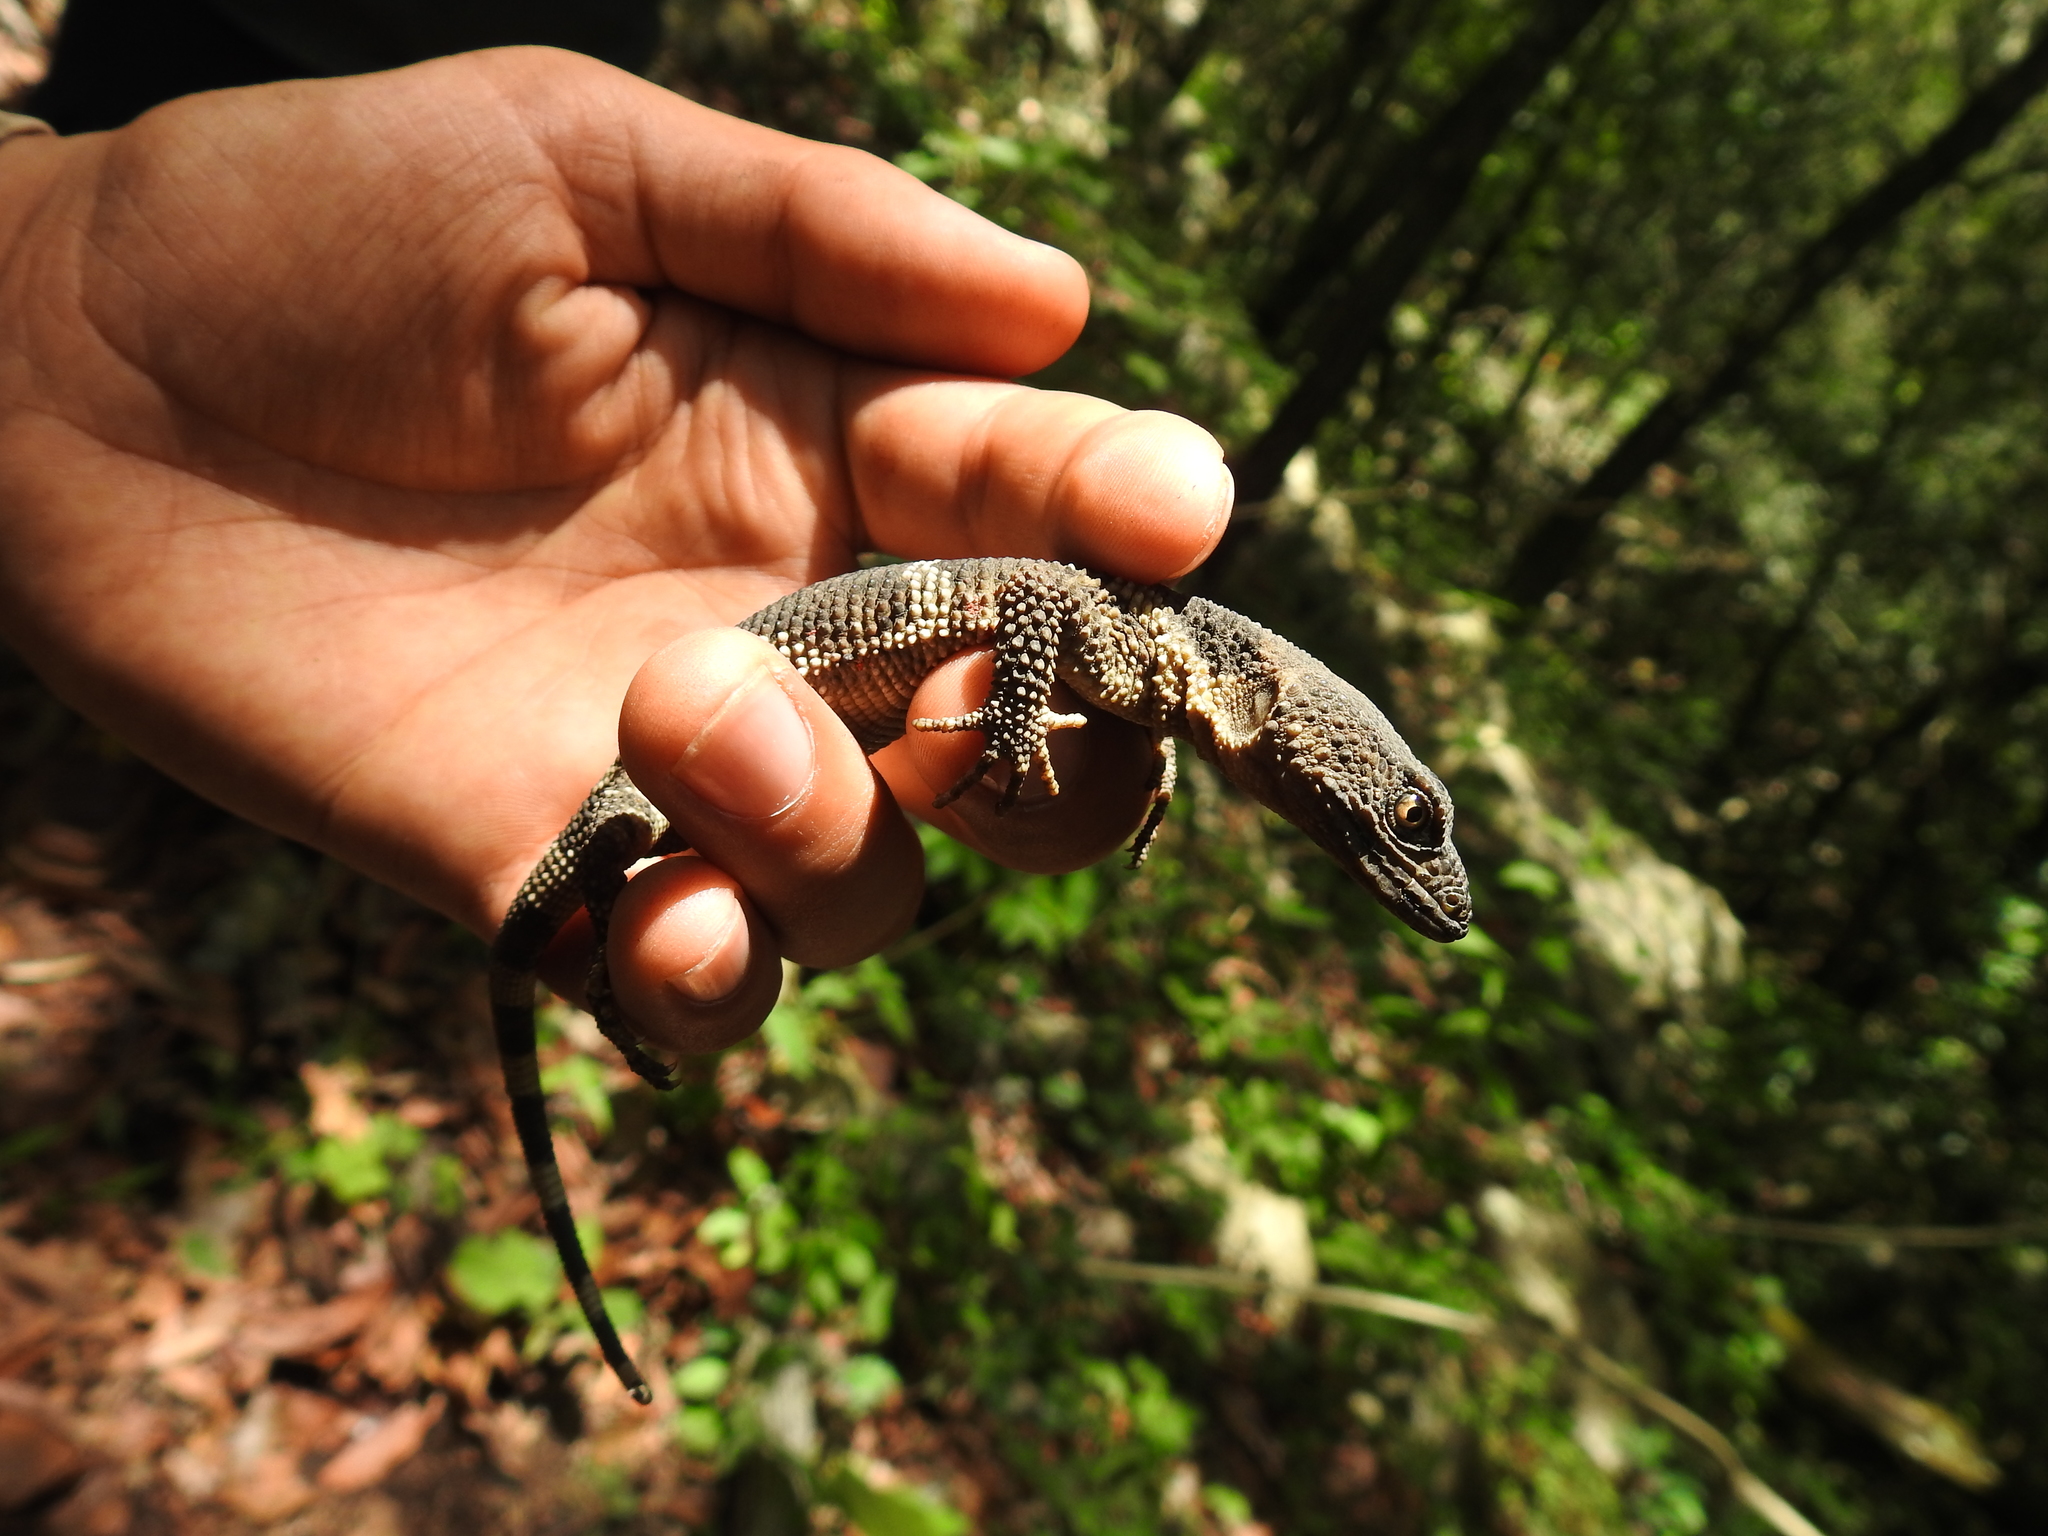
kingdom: Animalia
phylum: Chordata
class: Squamata
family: Xenosauridae
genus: Xenosaurus
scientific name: Xenosaurus platyceps
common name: Flathead knob-scaled lizard
